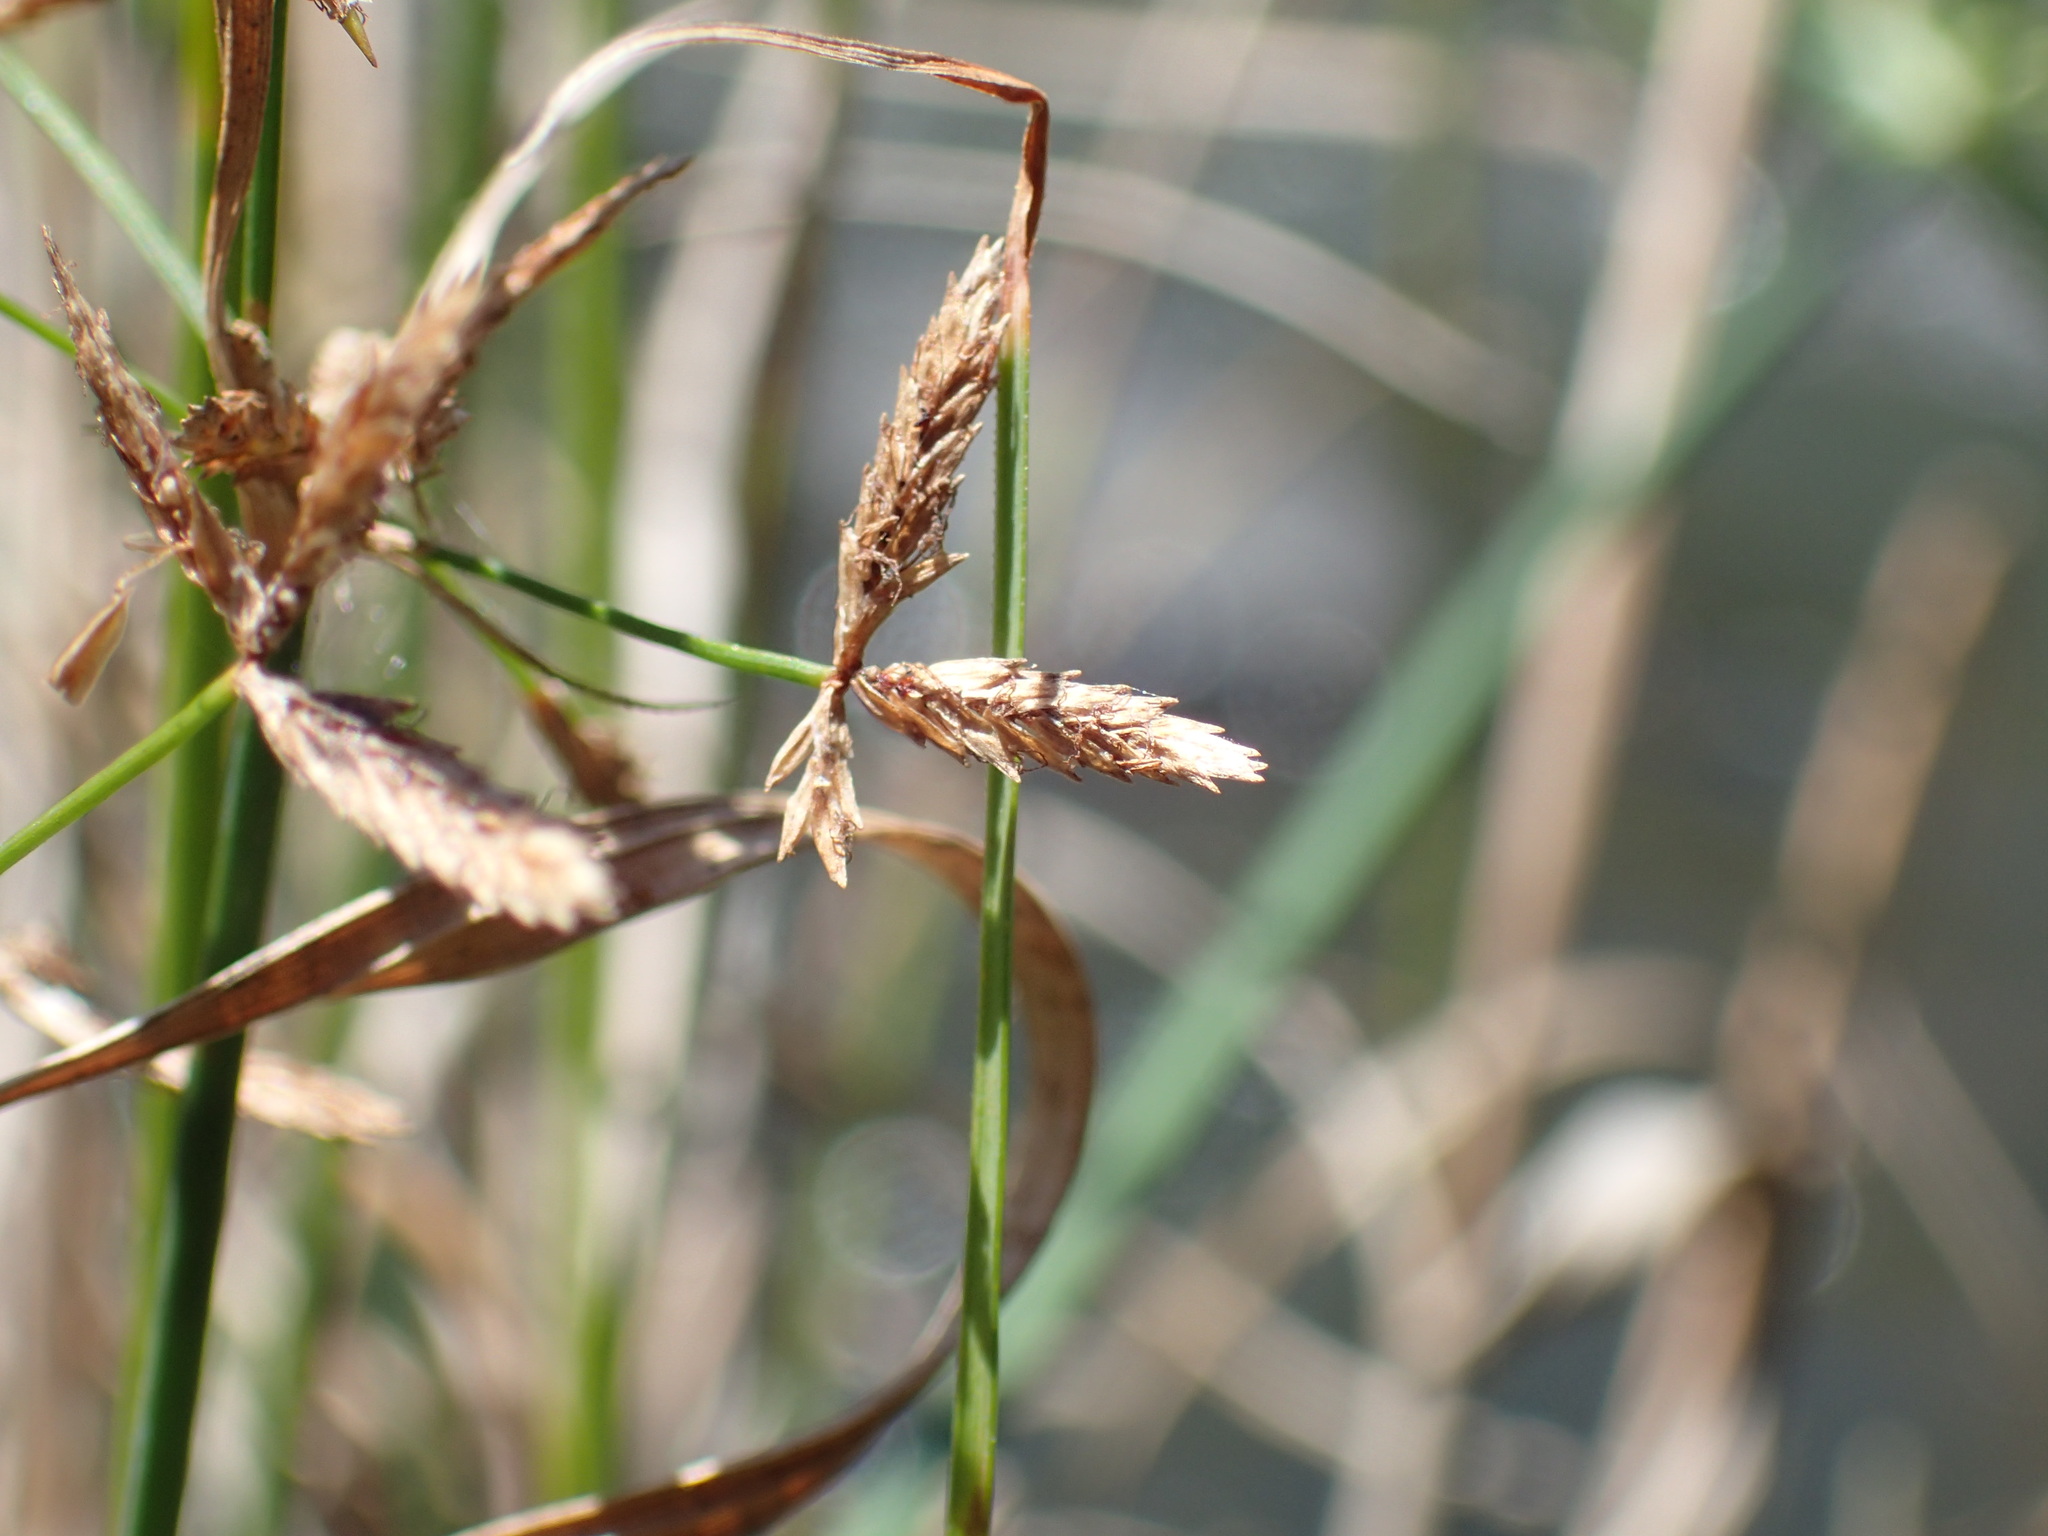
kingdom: Plantae
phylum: Tracheophyta
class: Liliopsida
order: Poales
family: Cyperaceae
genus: Cyperus
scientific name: Cyperus sphaerospermus
